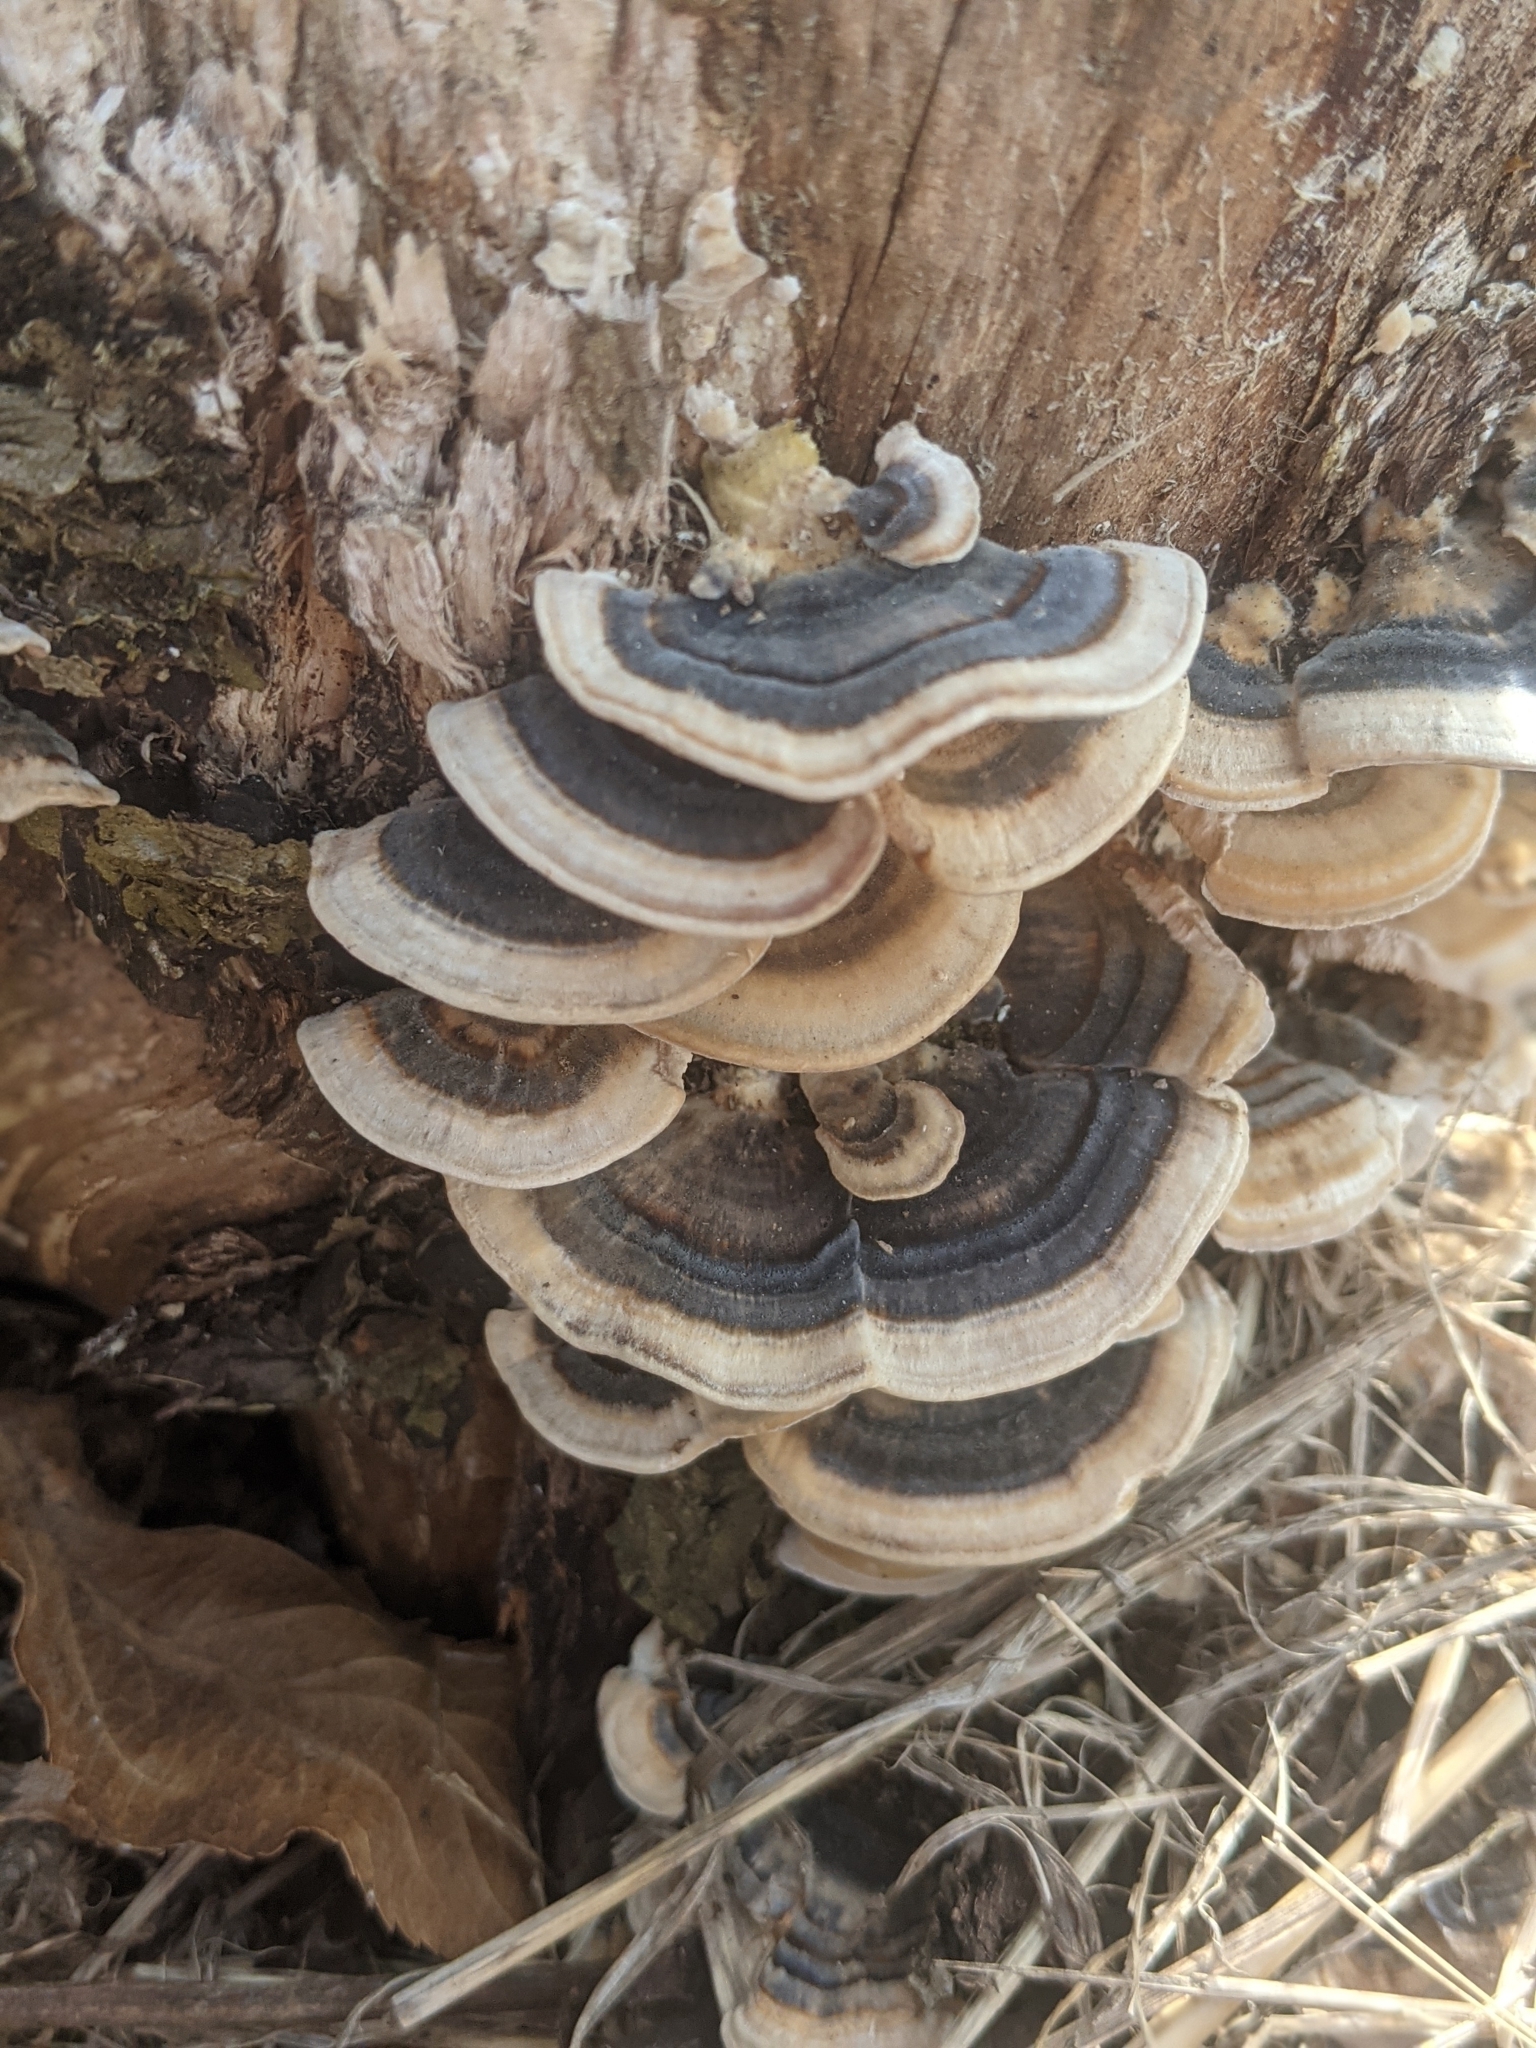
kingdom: Fungi
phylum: Basidiomycota
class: Agaricomycetes
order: Polyporales
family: Polyporaceae
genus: Trametes
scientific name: Trametes versicolor
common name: Turkeytail
